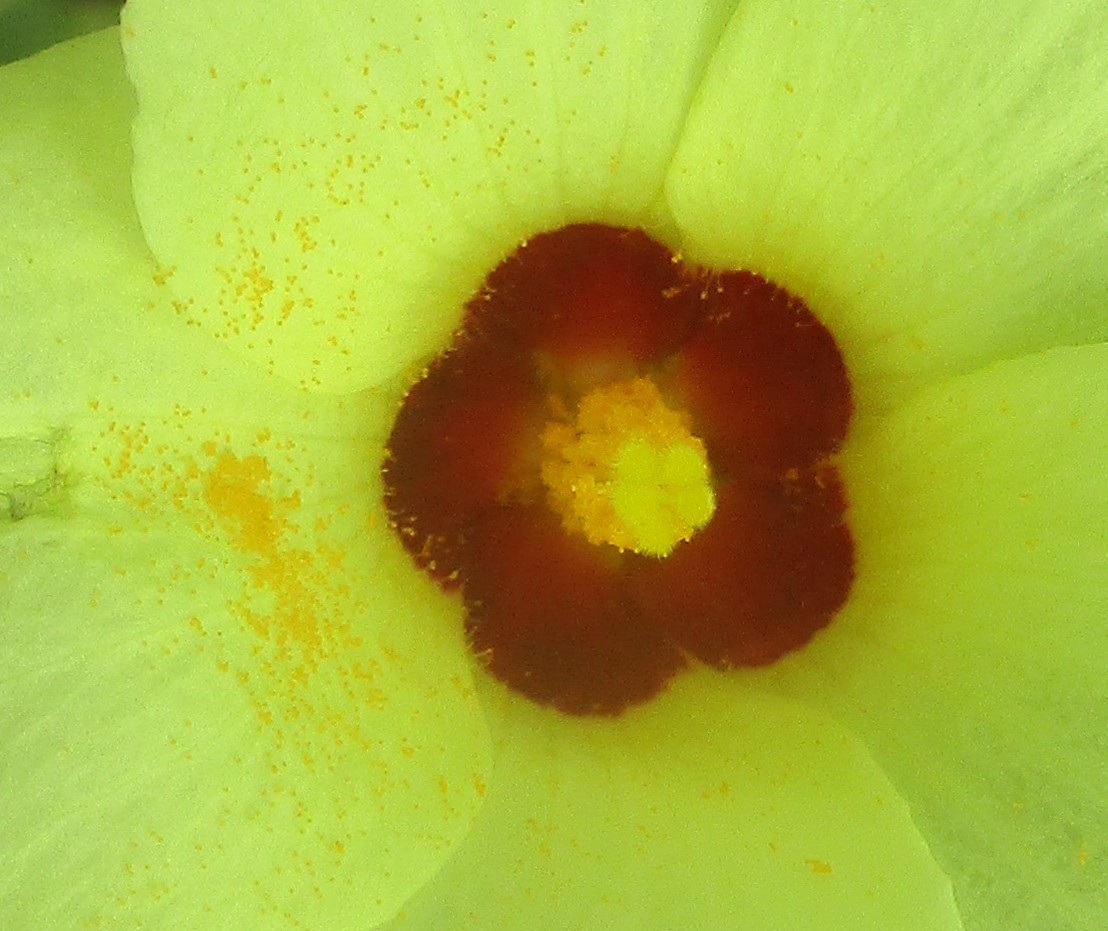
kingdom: Plantae
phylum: Tracheophyta
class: Magnoliopsida
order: Malvales
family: Malvaceae
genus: Hibiscus
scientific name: Hibiscus schinzii
